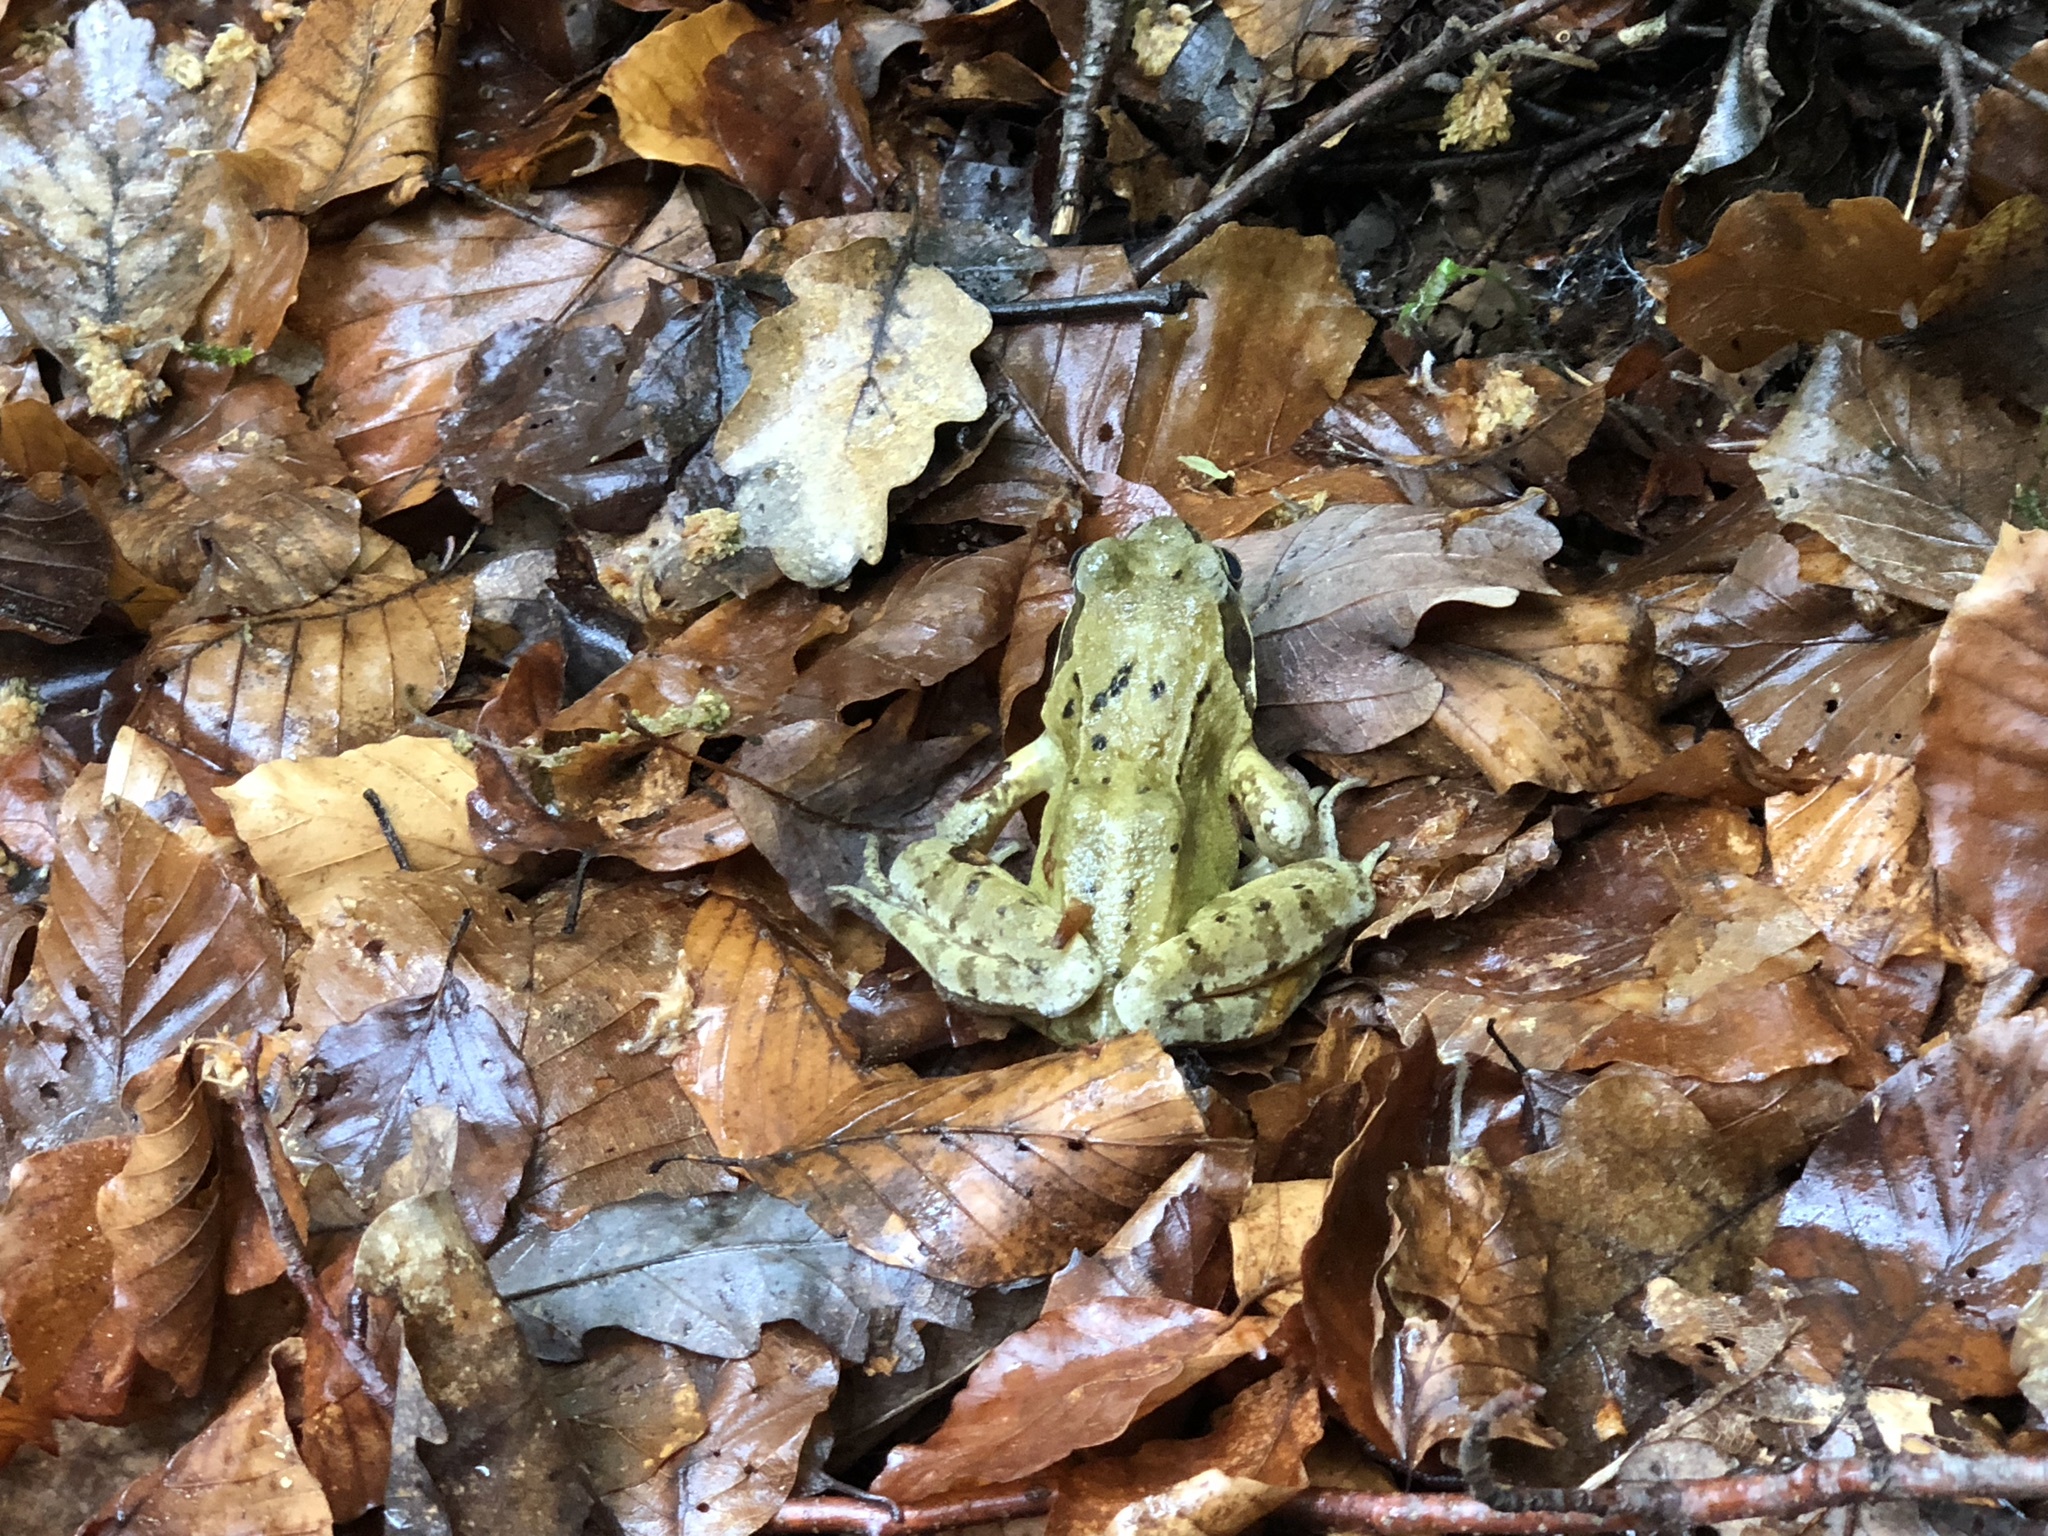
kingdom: Animalia
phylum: Chordata
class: Amphibia
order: Anura
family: Ranidae
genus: Rana
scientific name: Rana temporaria
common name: Common frog
